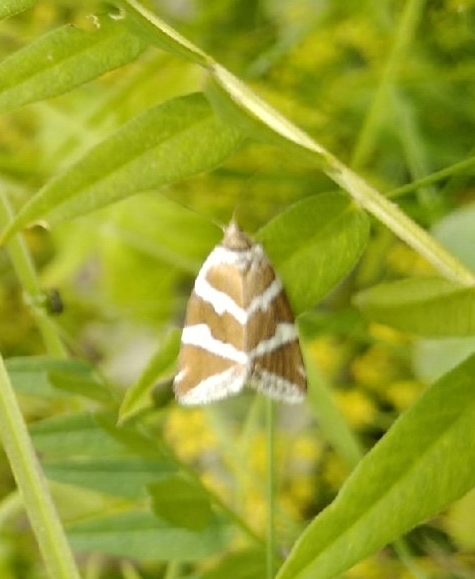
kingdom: Animalia
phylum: Arthropoda
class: Insecta
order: Lepidoptera
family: Noctuidae
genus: Deltote
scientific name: Deltote bankiana
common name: Silver barred
